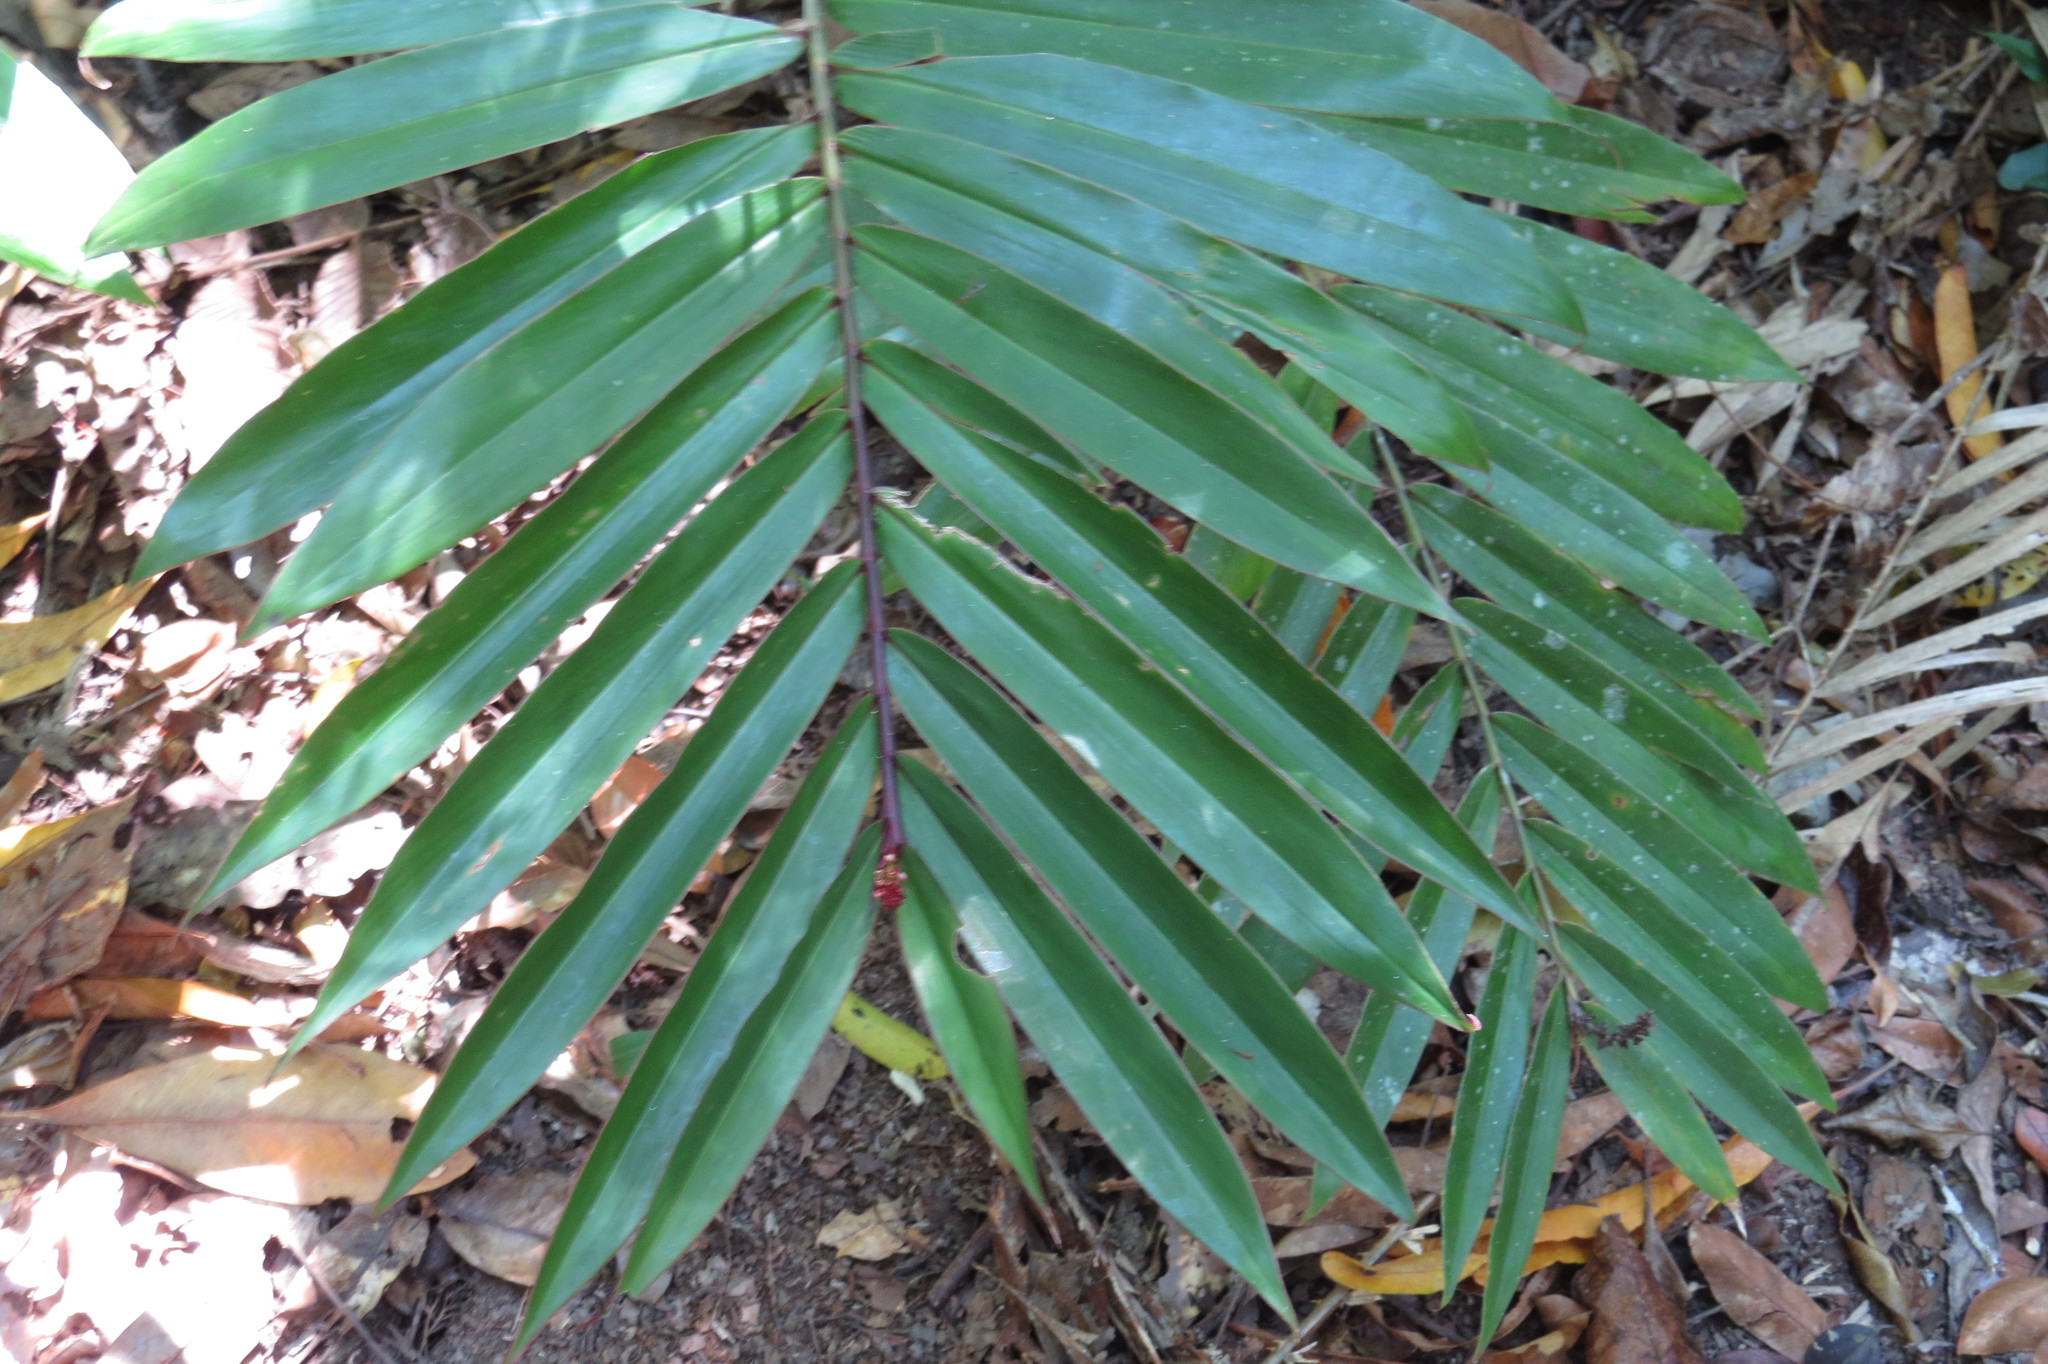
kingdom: Plantae
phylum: Tracheophyta
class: Liliopsida
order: Zingiberales
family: Zingiberaceae
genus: Alpinia
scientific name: Alpinia modesta
